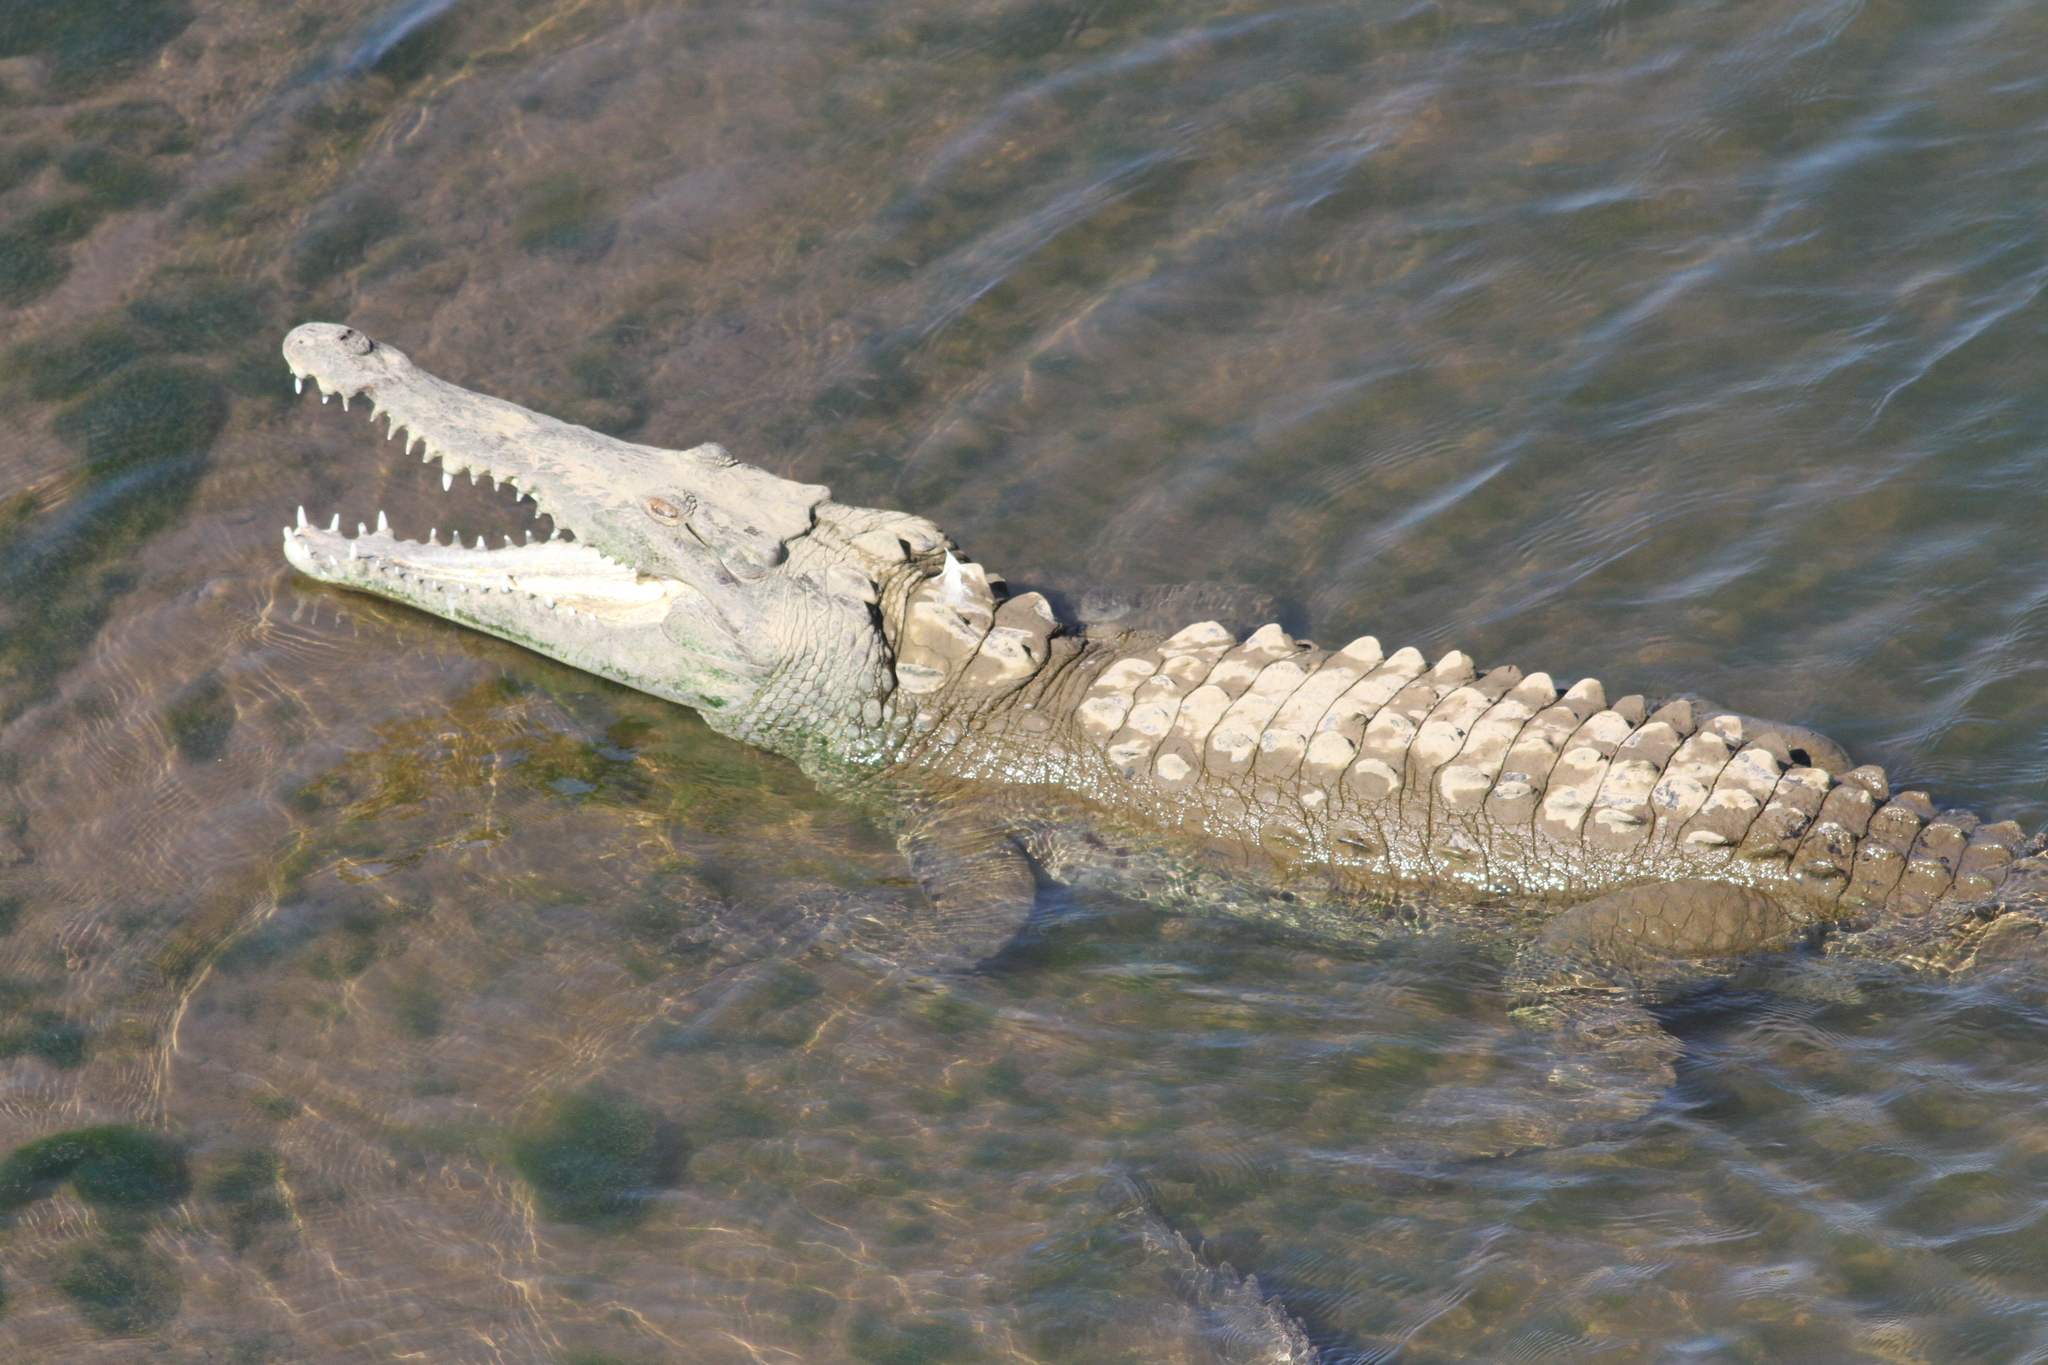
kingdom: Animalia
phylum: Chordata
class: Crocodylia
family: Crocodylidae
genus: Crocodylus
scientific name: Crocodylus acutus
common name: American crocodile
